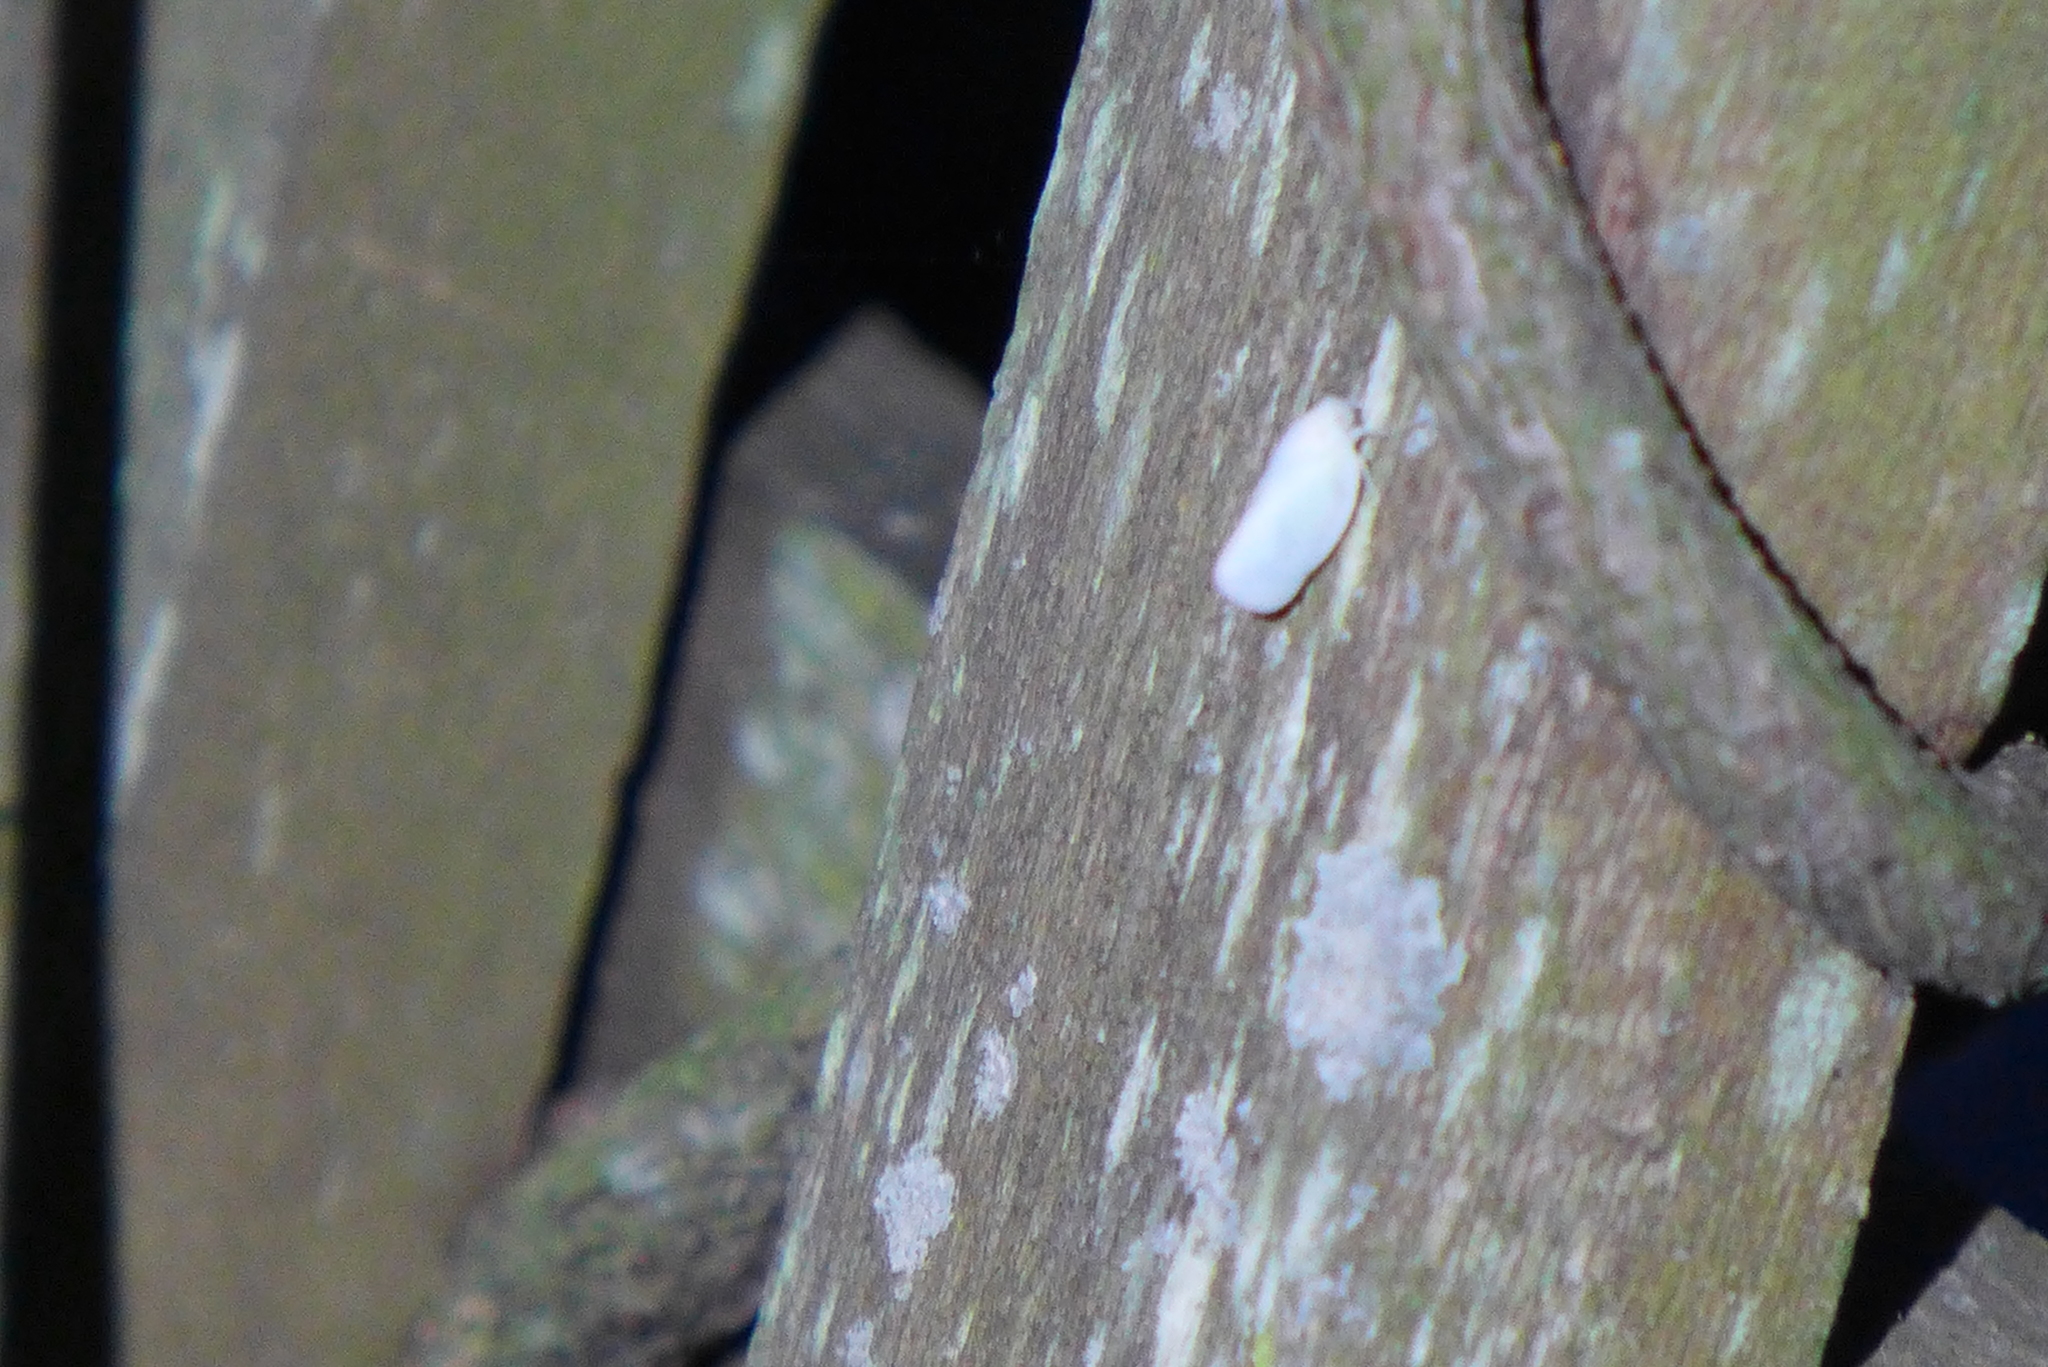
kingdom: Animalia
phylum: Arthropoda
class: Insecta
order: Hemiptera
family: Flatidae
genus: Ormenoides
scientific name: Ormenoides venusta
